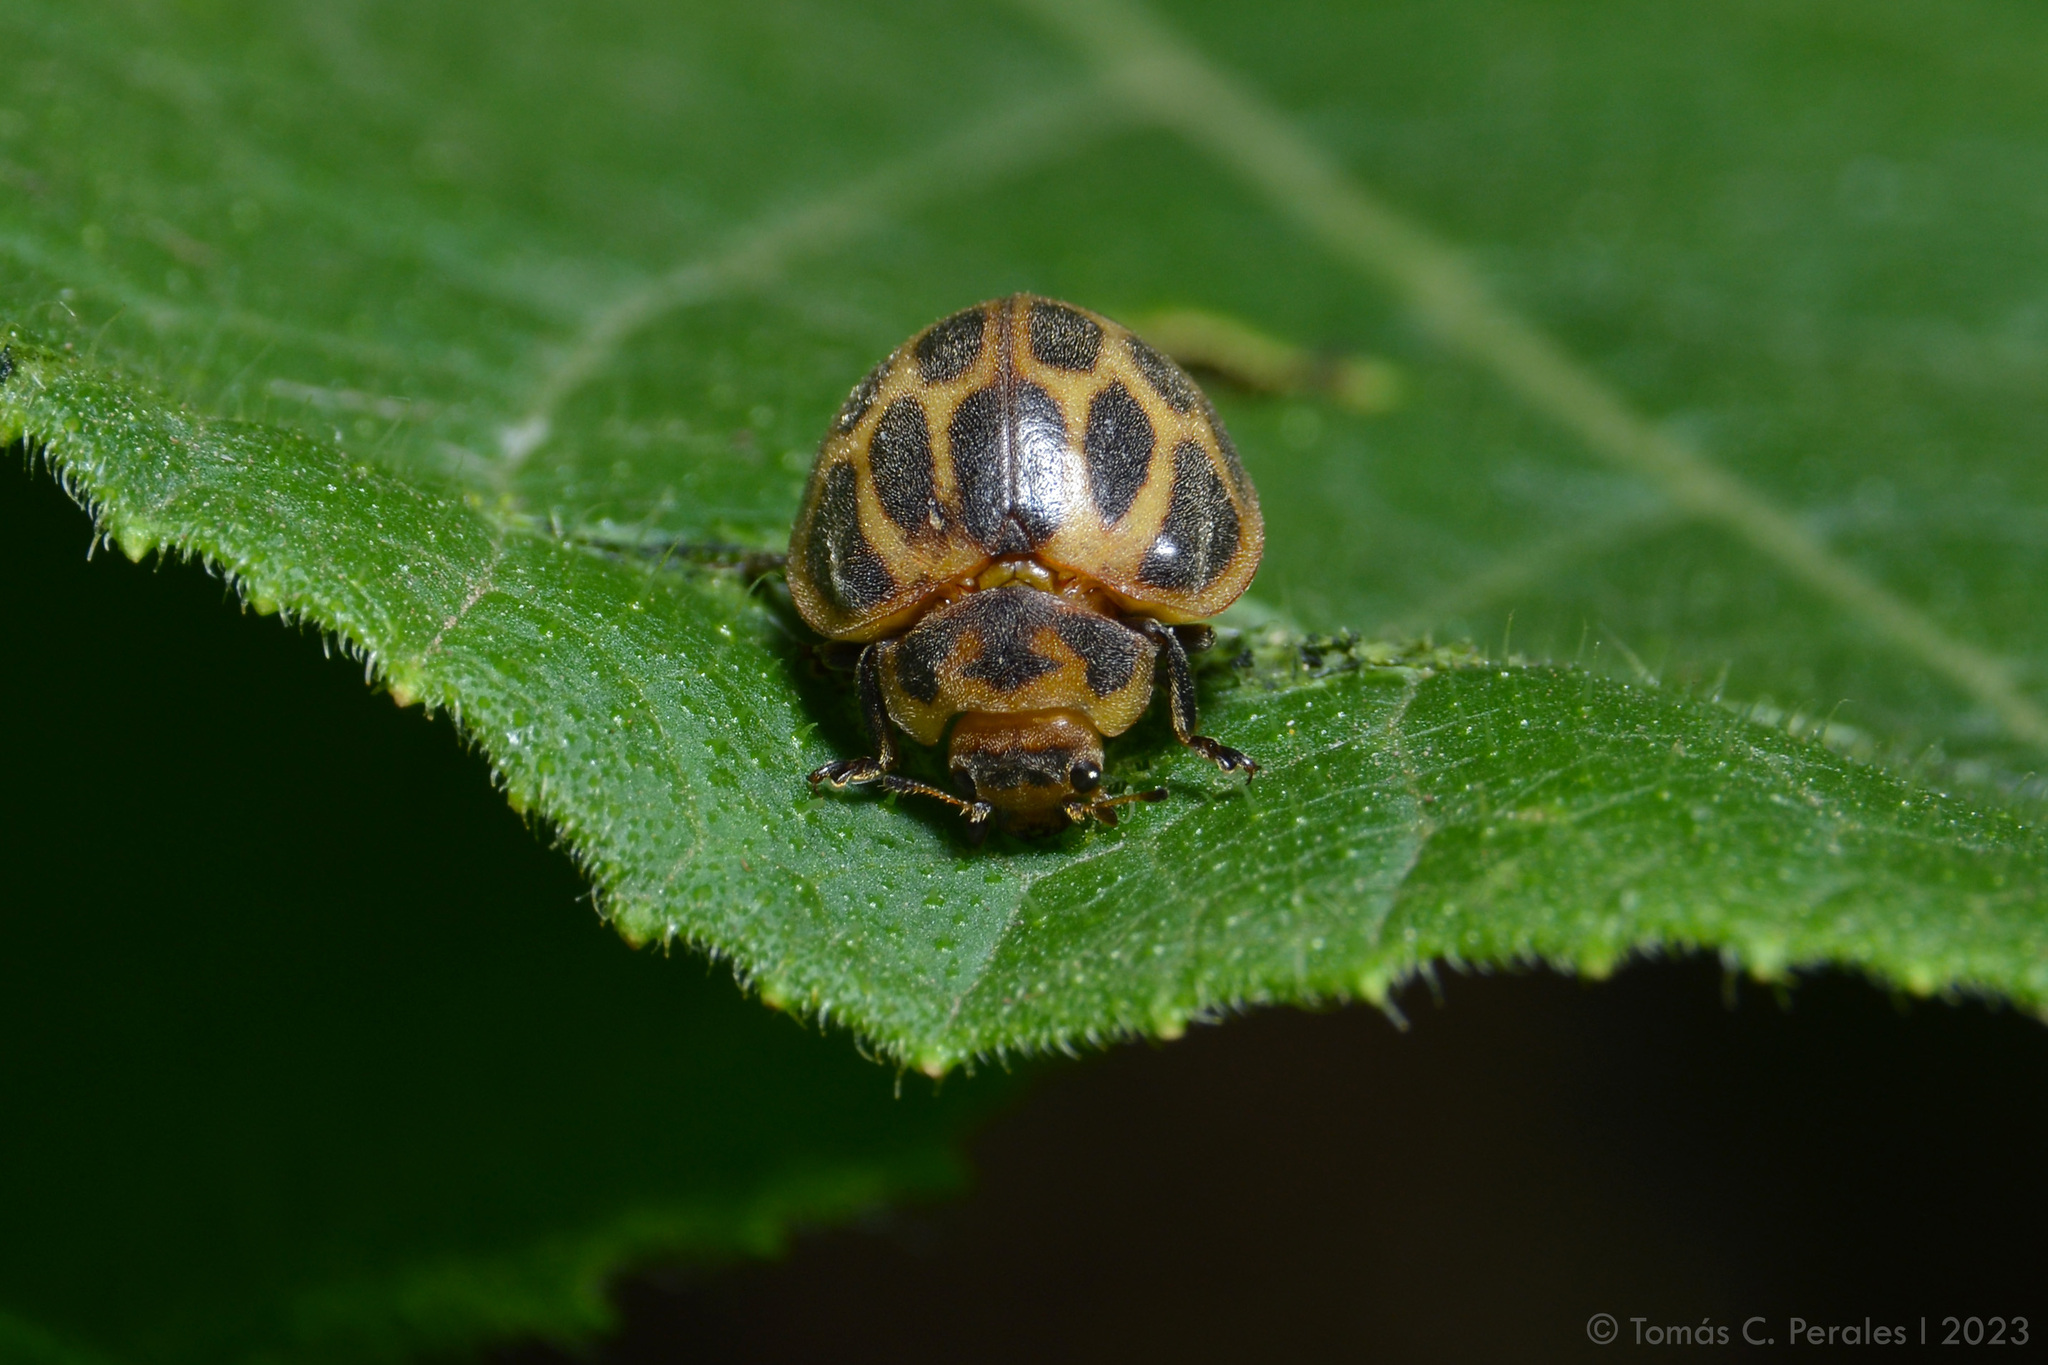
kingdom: Animalia
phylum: Arthropoda
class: Insecta
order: Coleoptera
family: Coccinellidae
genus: Epilachna
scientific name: Epilachna
